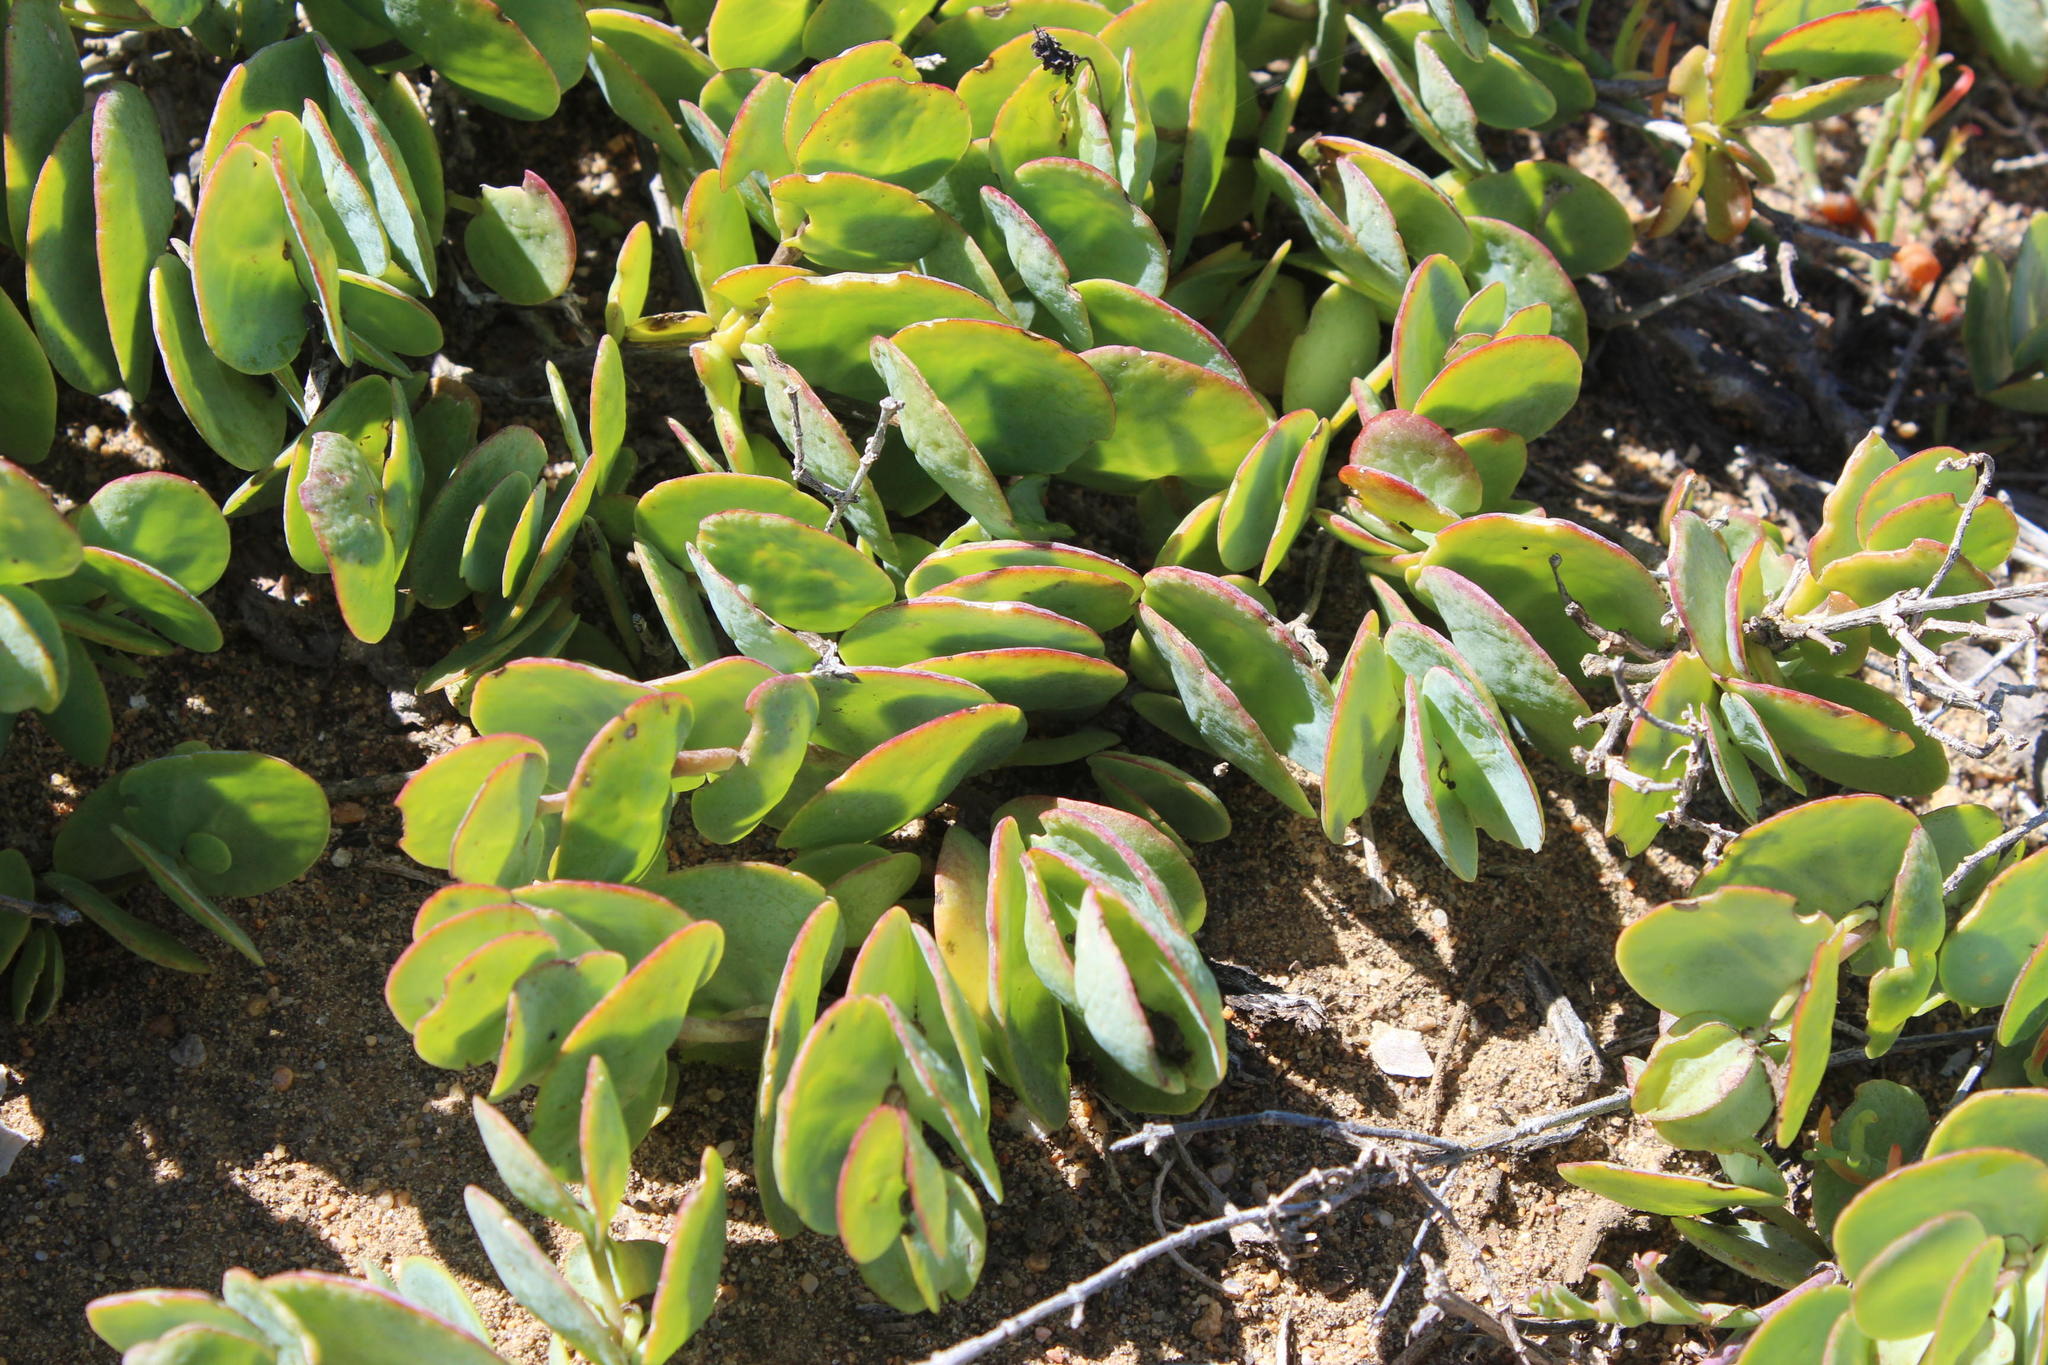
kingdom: Plantae
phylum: Tracheophyta
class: Magnoliopsida
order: Zygophyllales
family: Zygophyllaceae
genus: Roepera
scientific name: Roepera cordifolia
